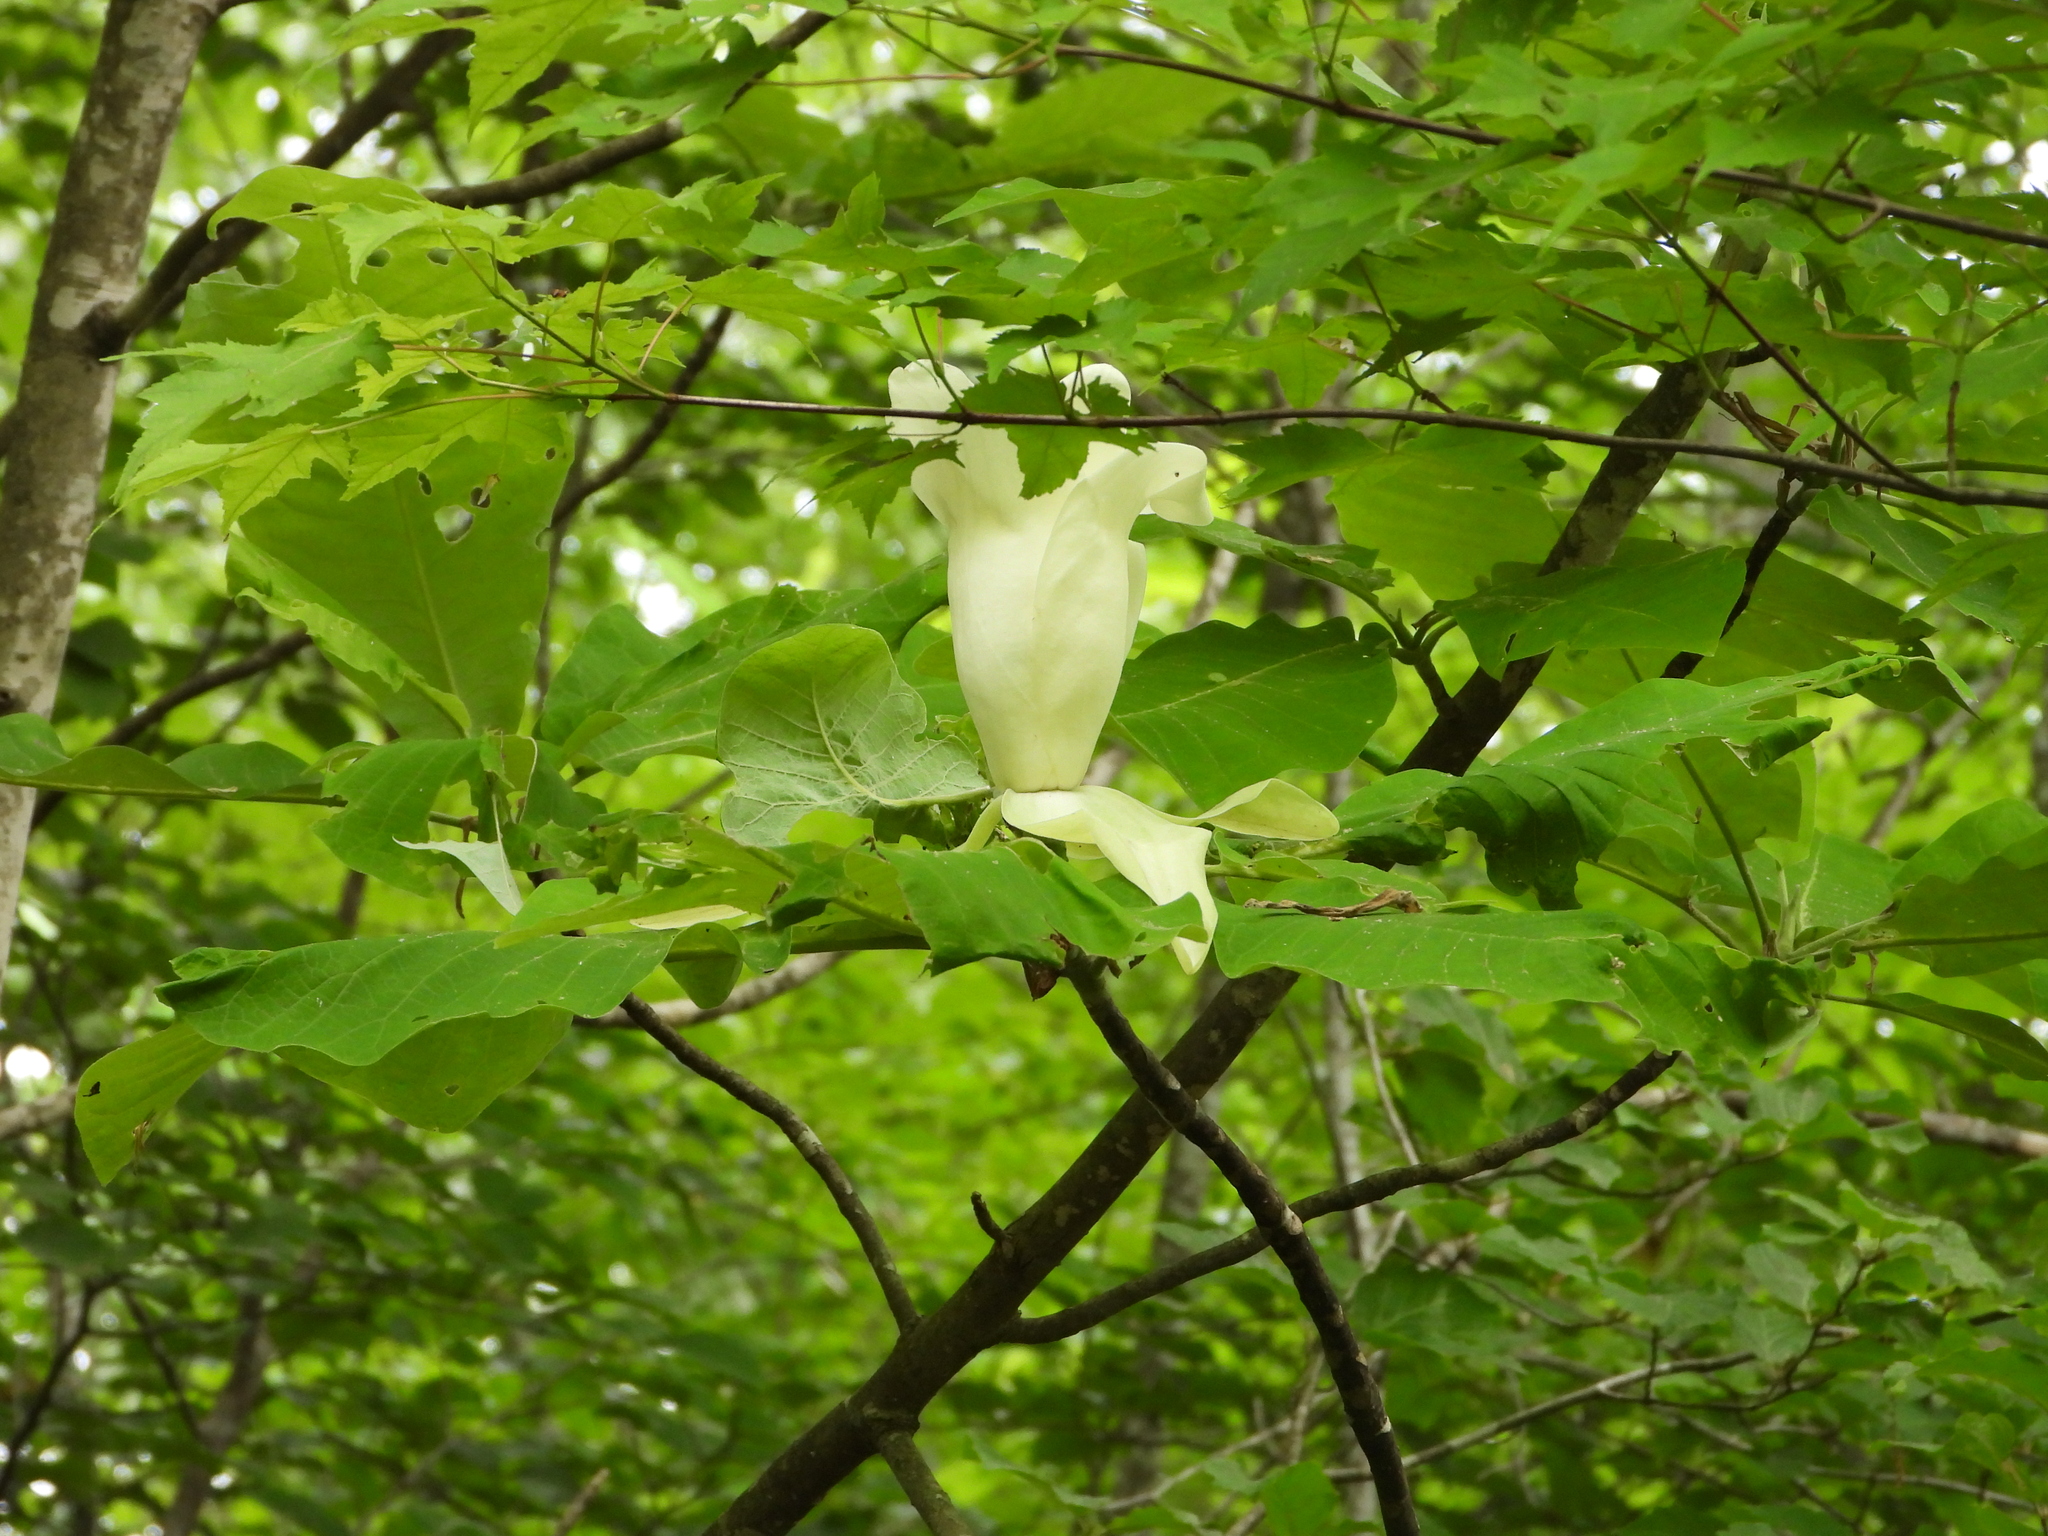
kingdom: Plantae
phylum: Tracheophyta
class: Magnoliopsida
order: Magnoliales
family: Magnoliaceae
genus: Magnolia
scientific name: Magnolia macrophylla
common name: Big-leaf magnolia
